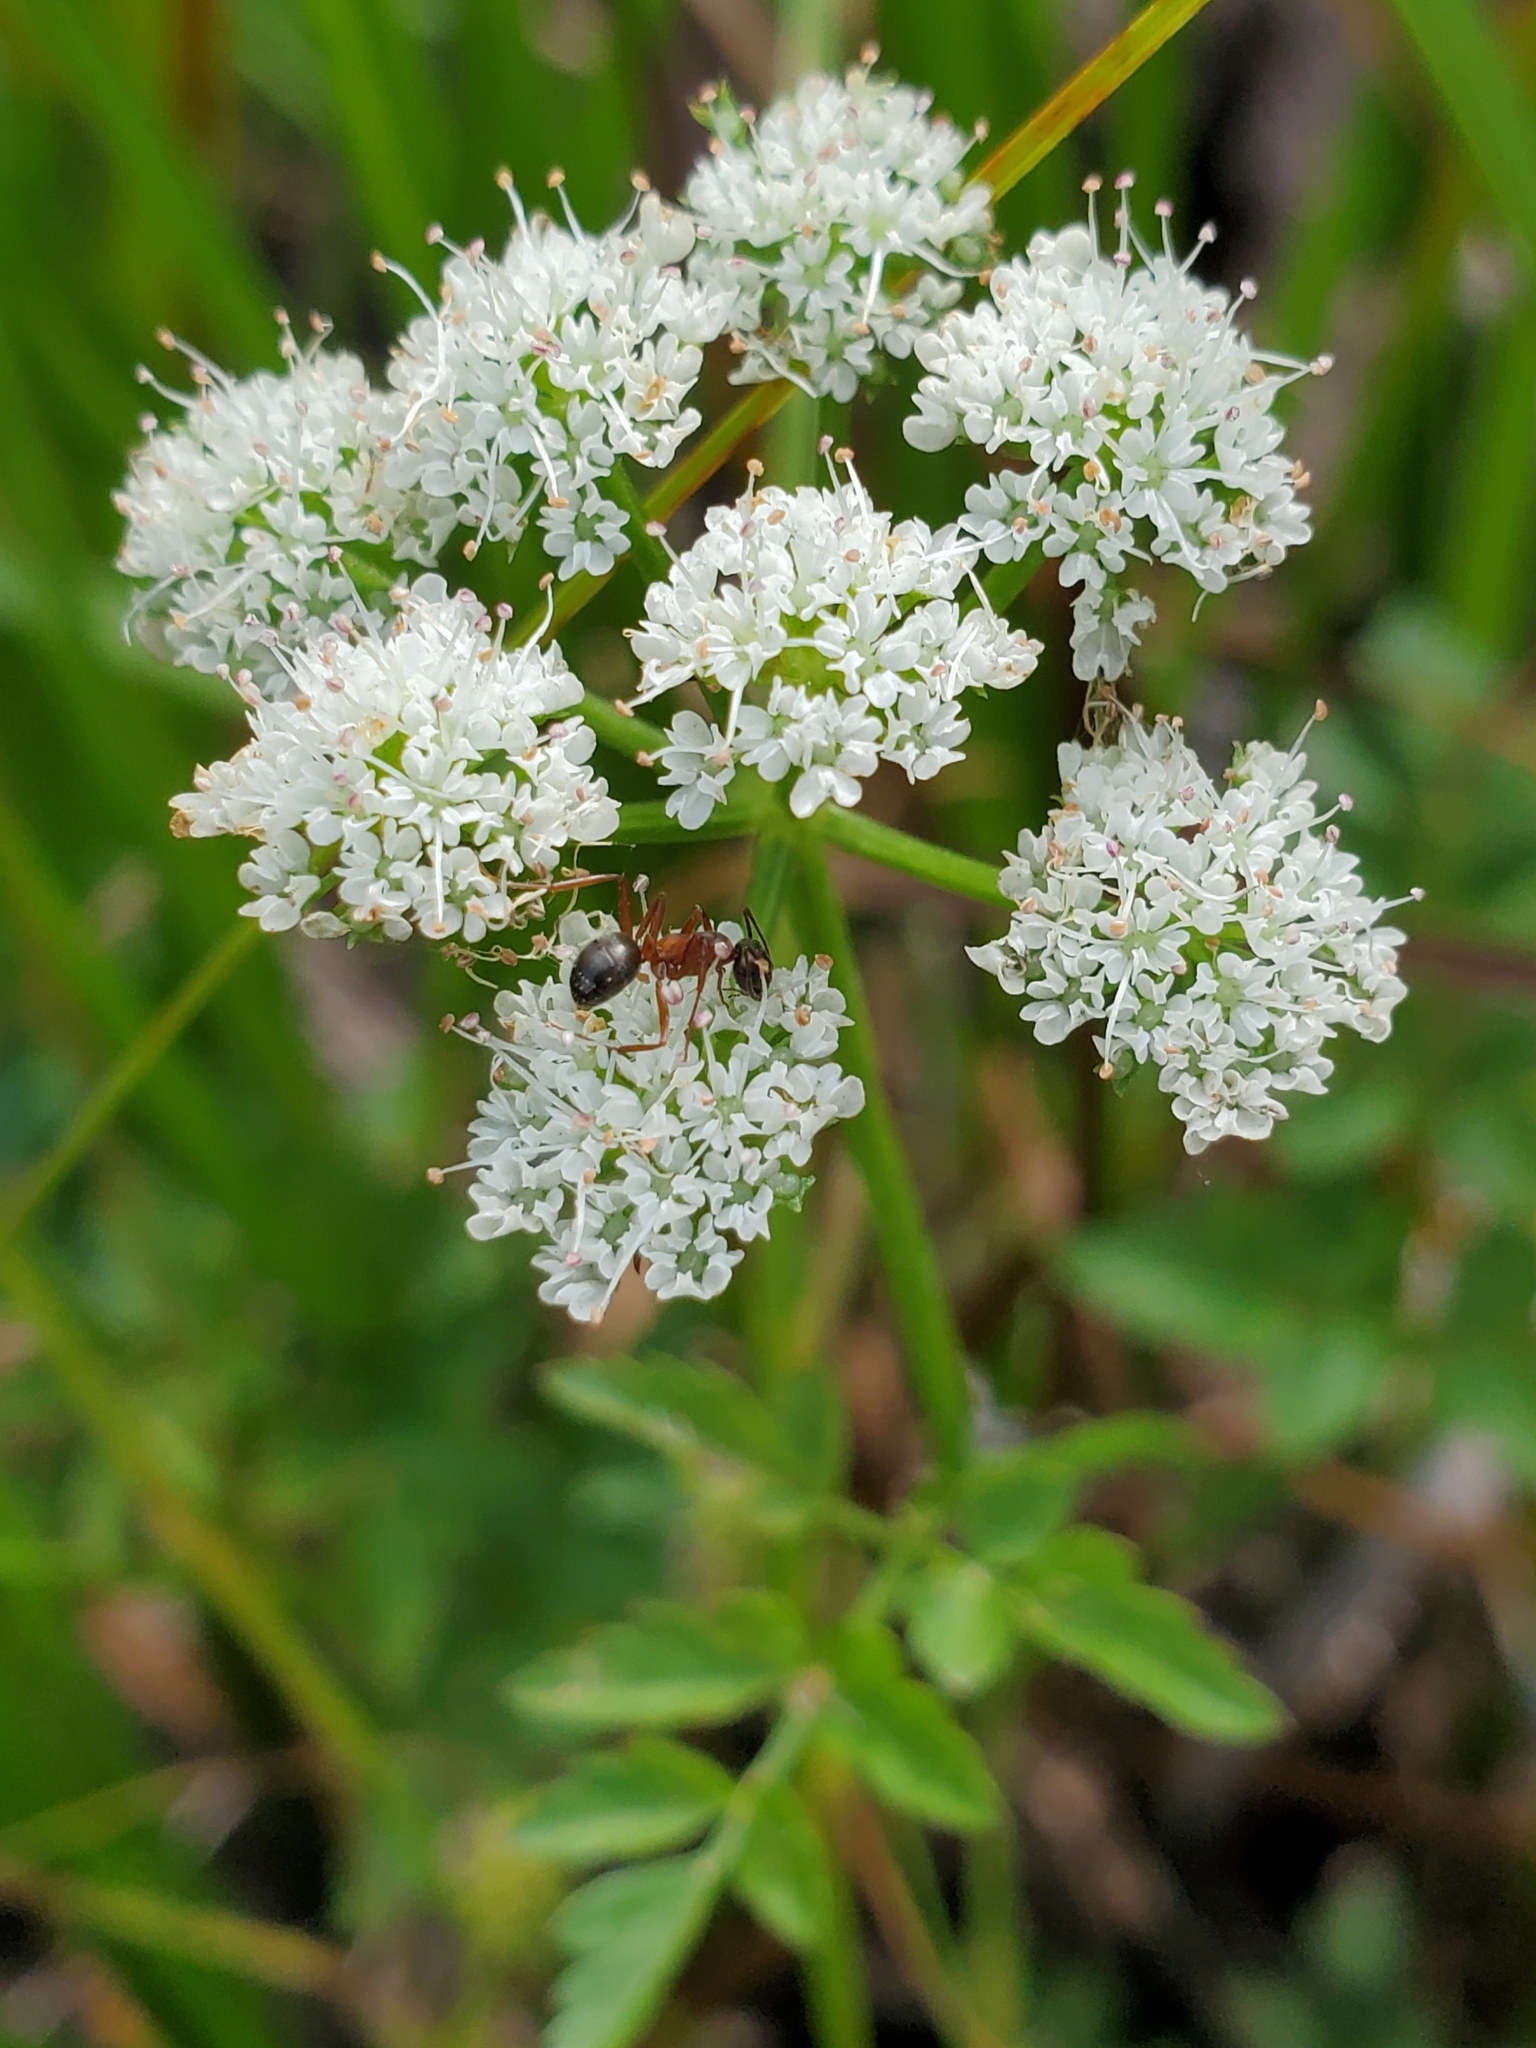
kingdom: Plantae
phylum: Tracheophyta
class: Magnoliopsida
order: Apiales
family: Apiaceae
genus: Oenanthe
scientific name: Oenanthe sarmentosa
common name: American water-parsley
